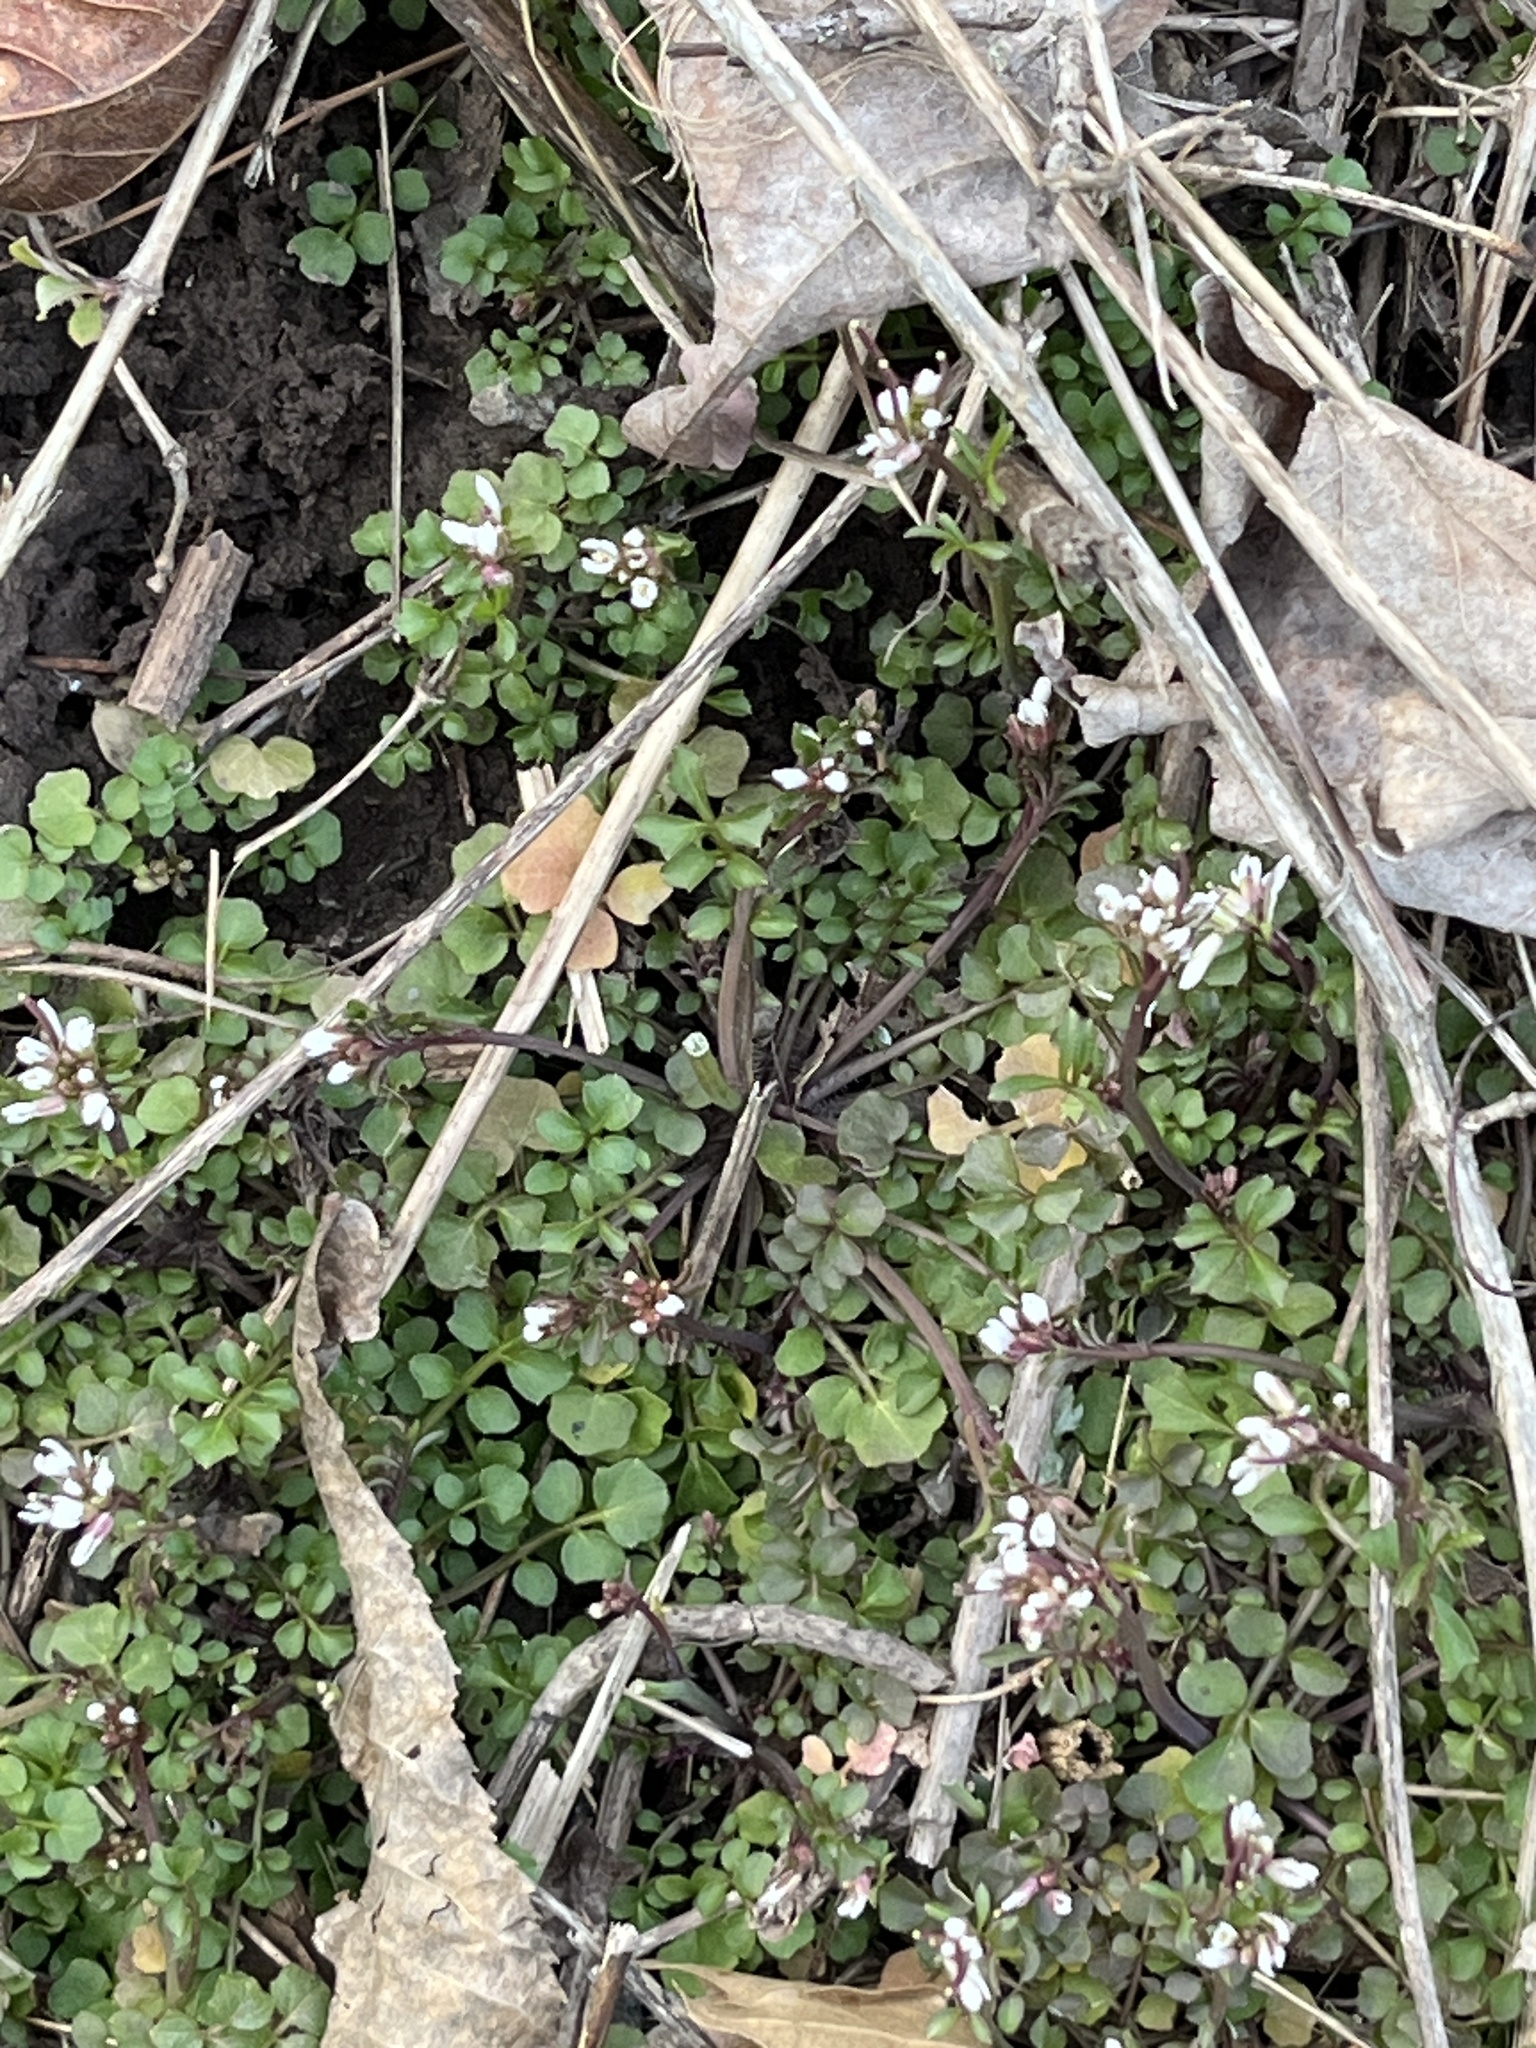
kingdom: Plantae
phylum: Tracheophyta
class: Magnoliopsida
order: Brassicales
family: Brassicaceae
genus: Cardamine
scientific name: Cardamine hirsuta
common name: Hairy bittercress
